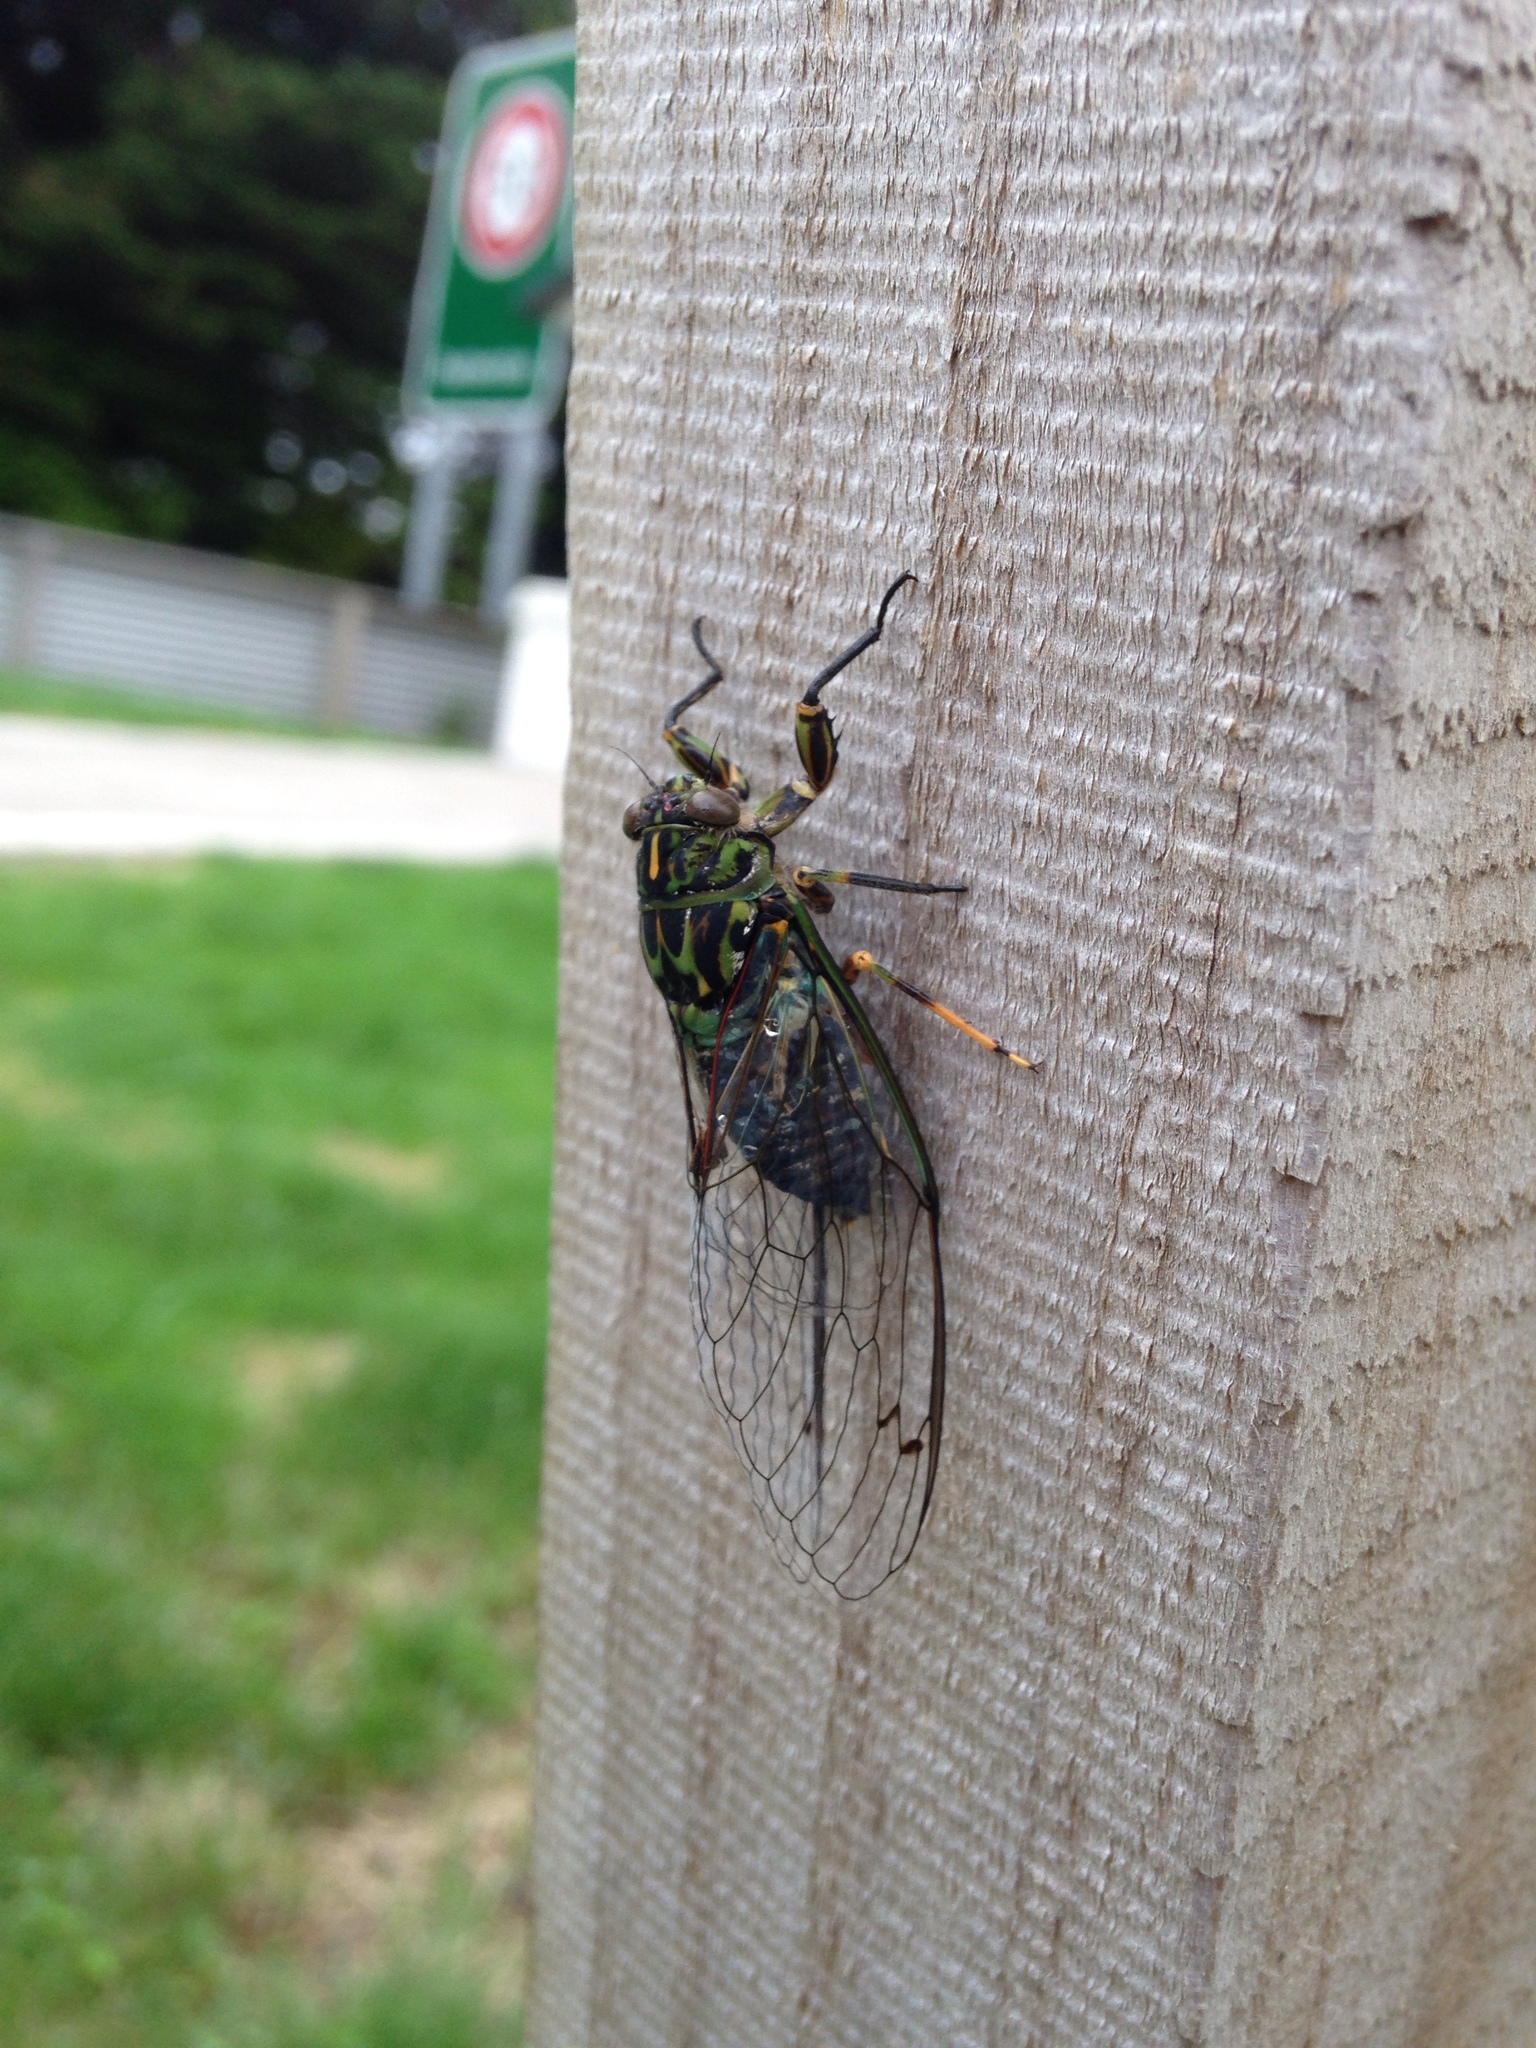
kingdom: Animalia
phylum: Arthropoda
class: Insecta
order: Hemiptera
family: Cicadidae
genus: Amphipsalta
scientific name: Amphipsalta zelandica
